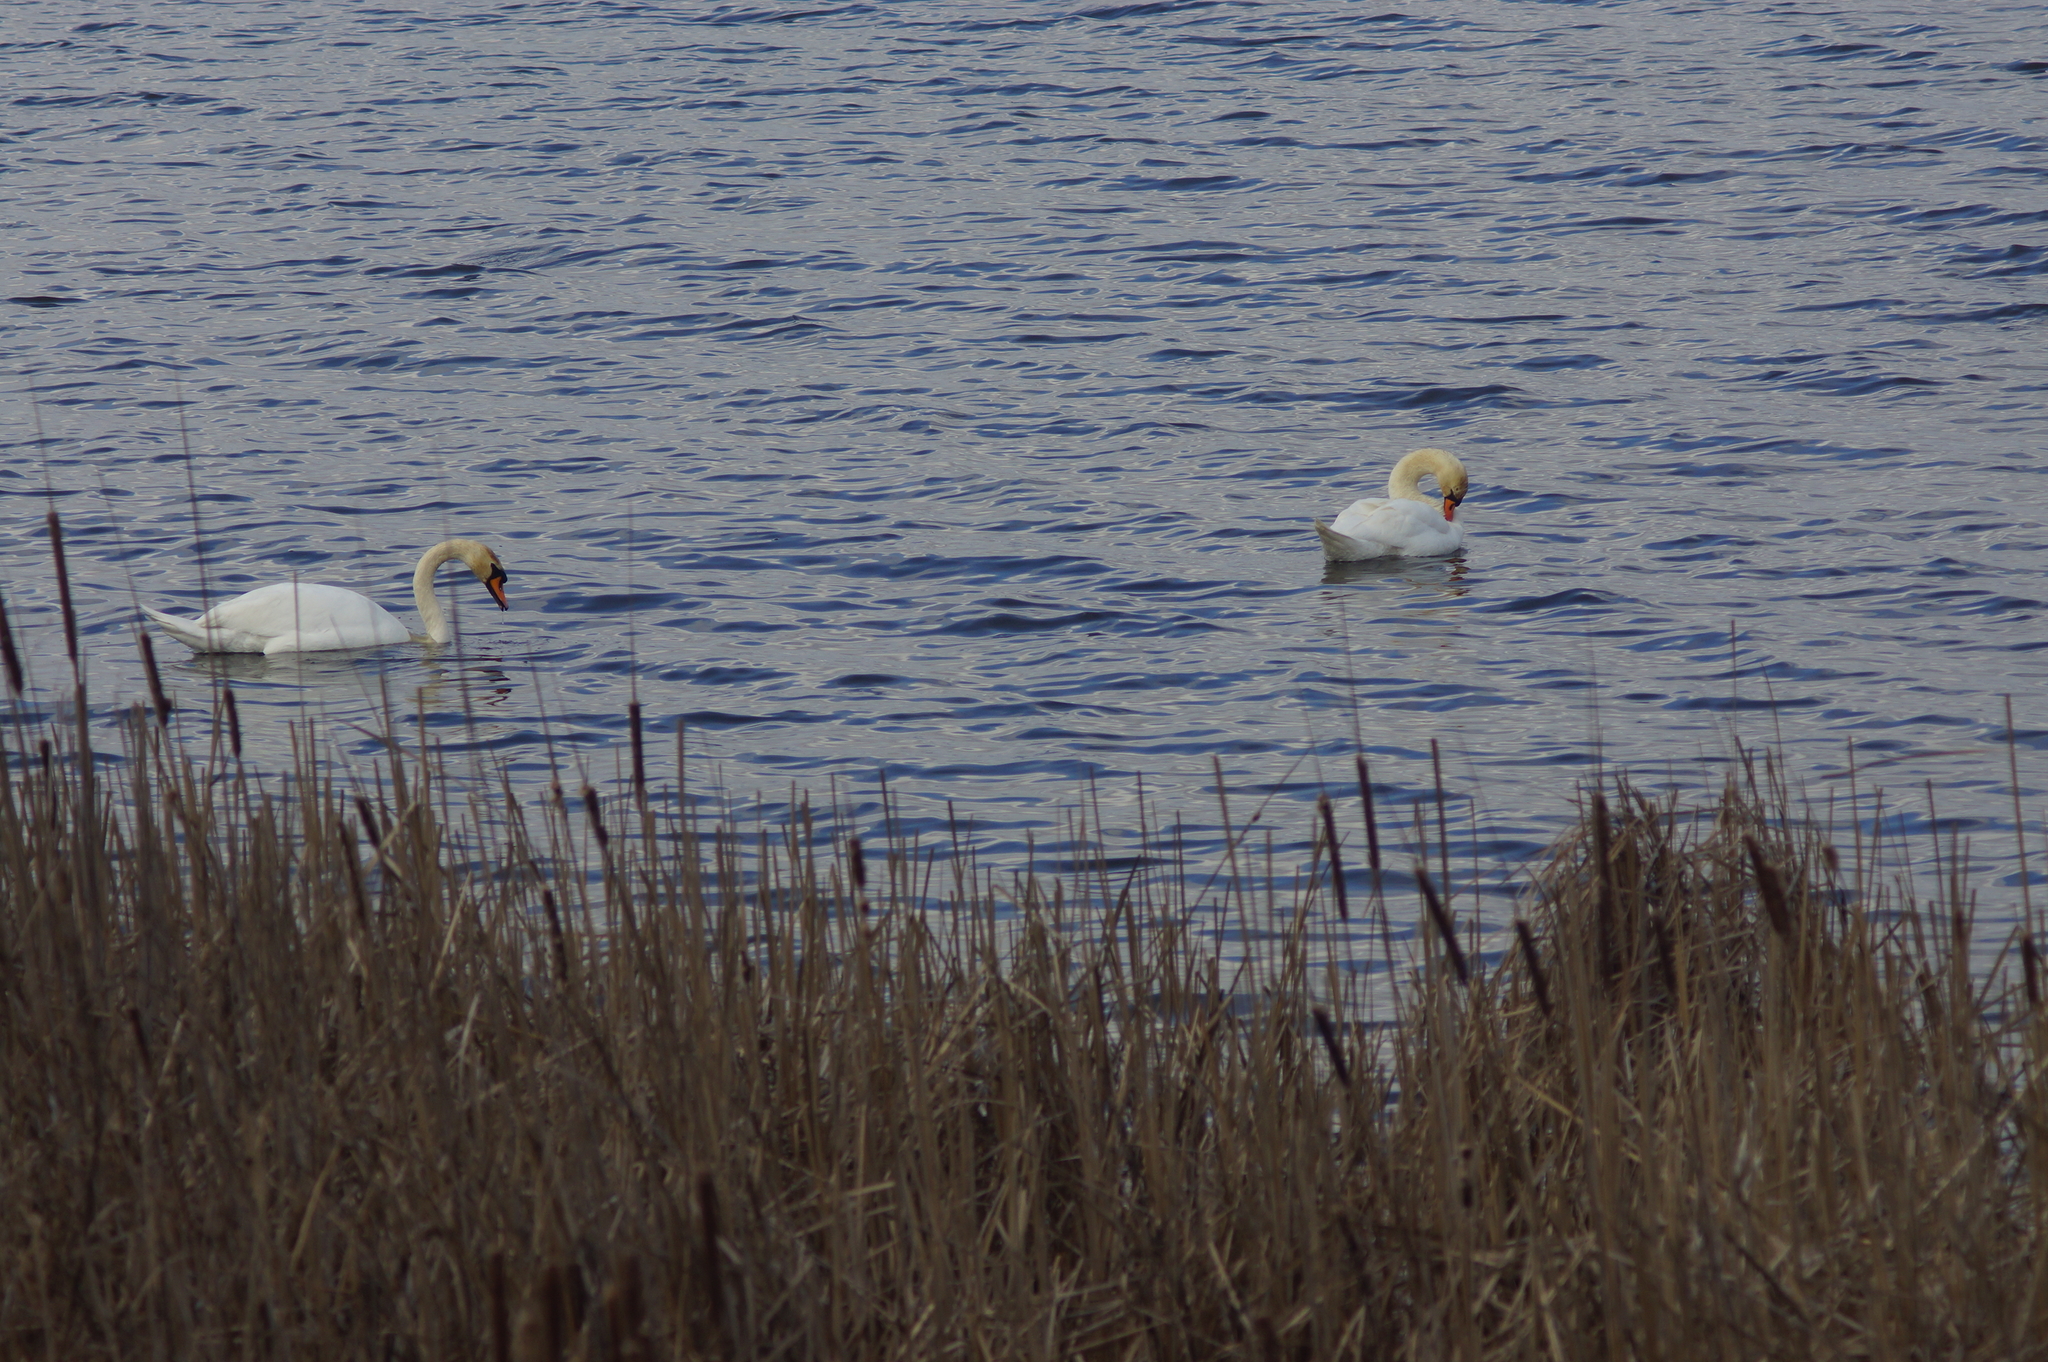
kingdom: Animalia
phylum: Chordata
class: Aves
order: Anseriformes
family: Anatidae
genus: Cygnus
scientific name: Cygnus olor
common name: Mute swan
